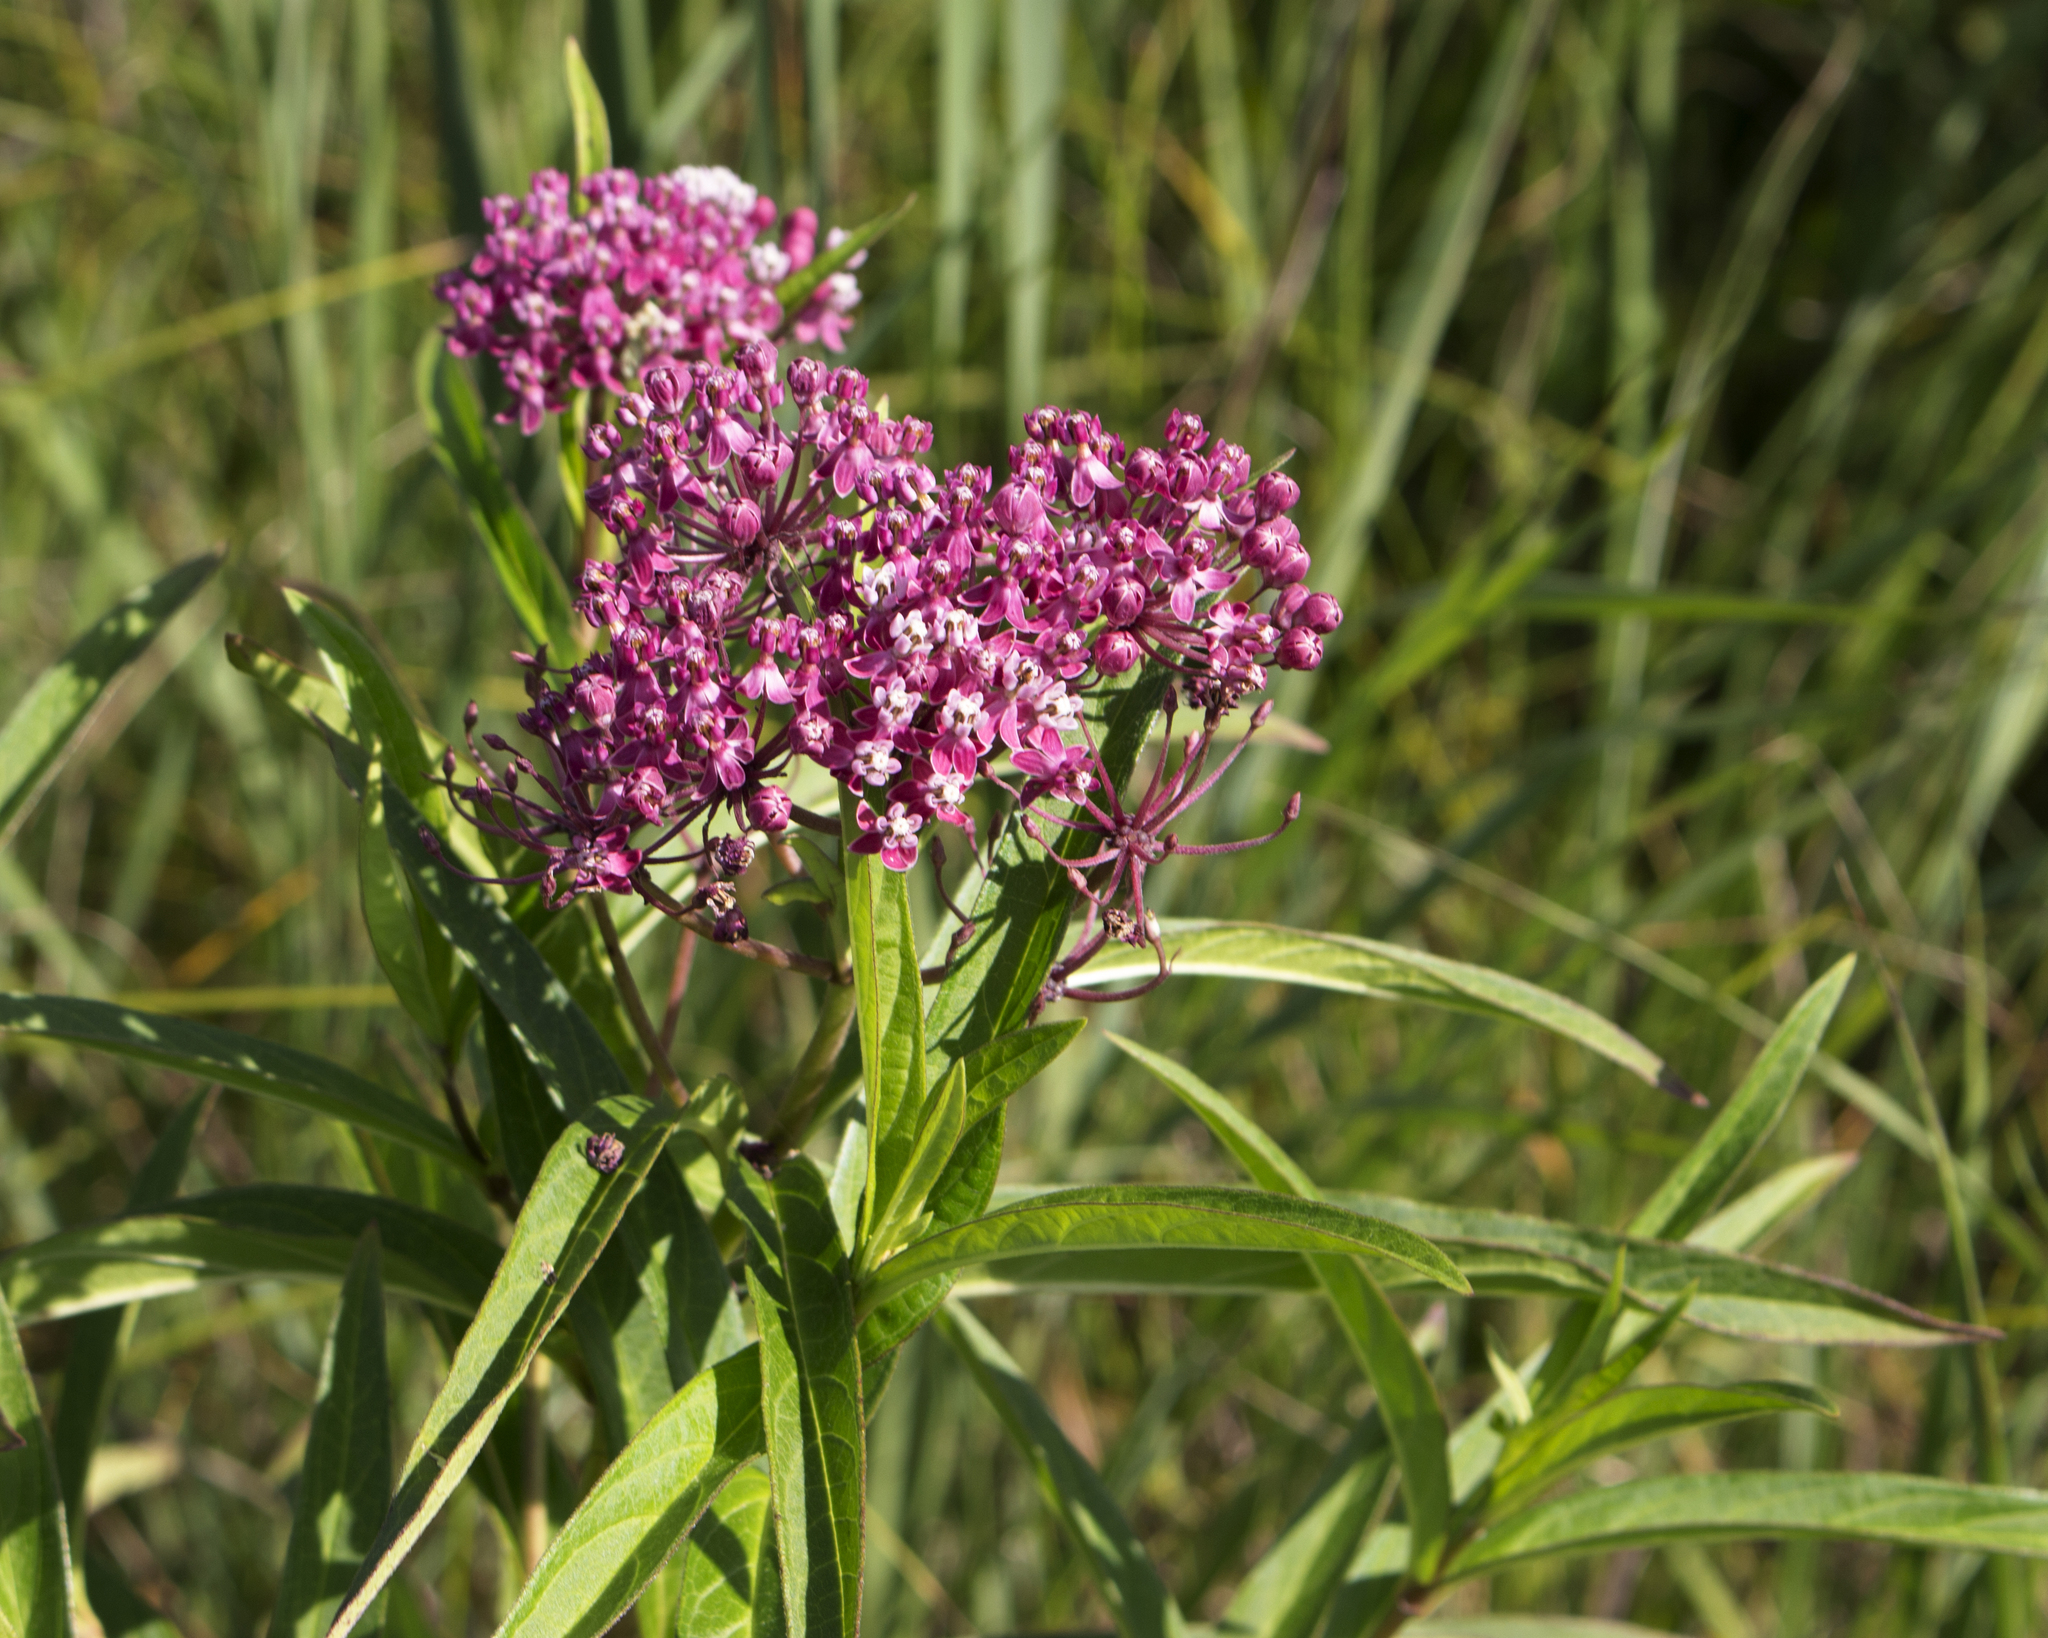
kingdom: Plantae
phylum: Tracheophyta
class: Magnoliopsida
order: Gentianales
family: Apocynaceae
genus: Asclepias
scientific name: Asclepias incarnata
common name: Swamp milkweed
